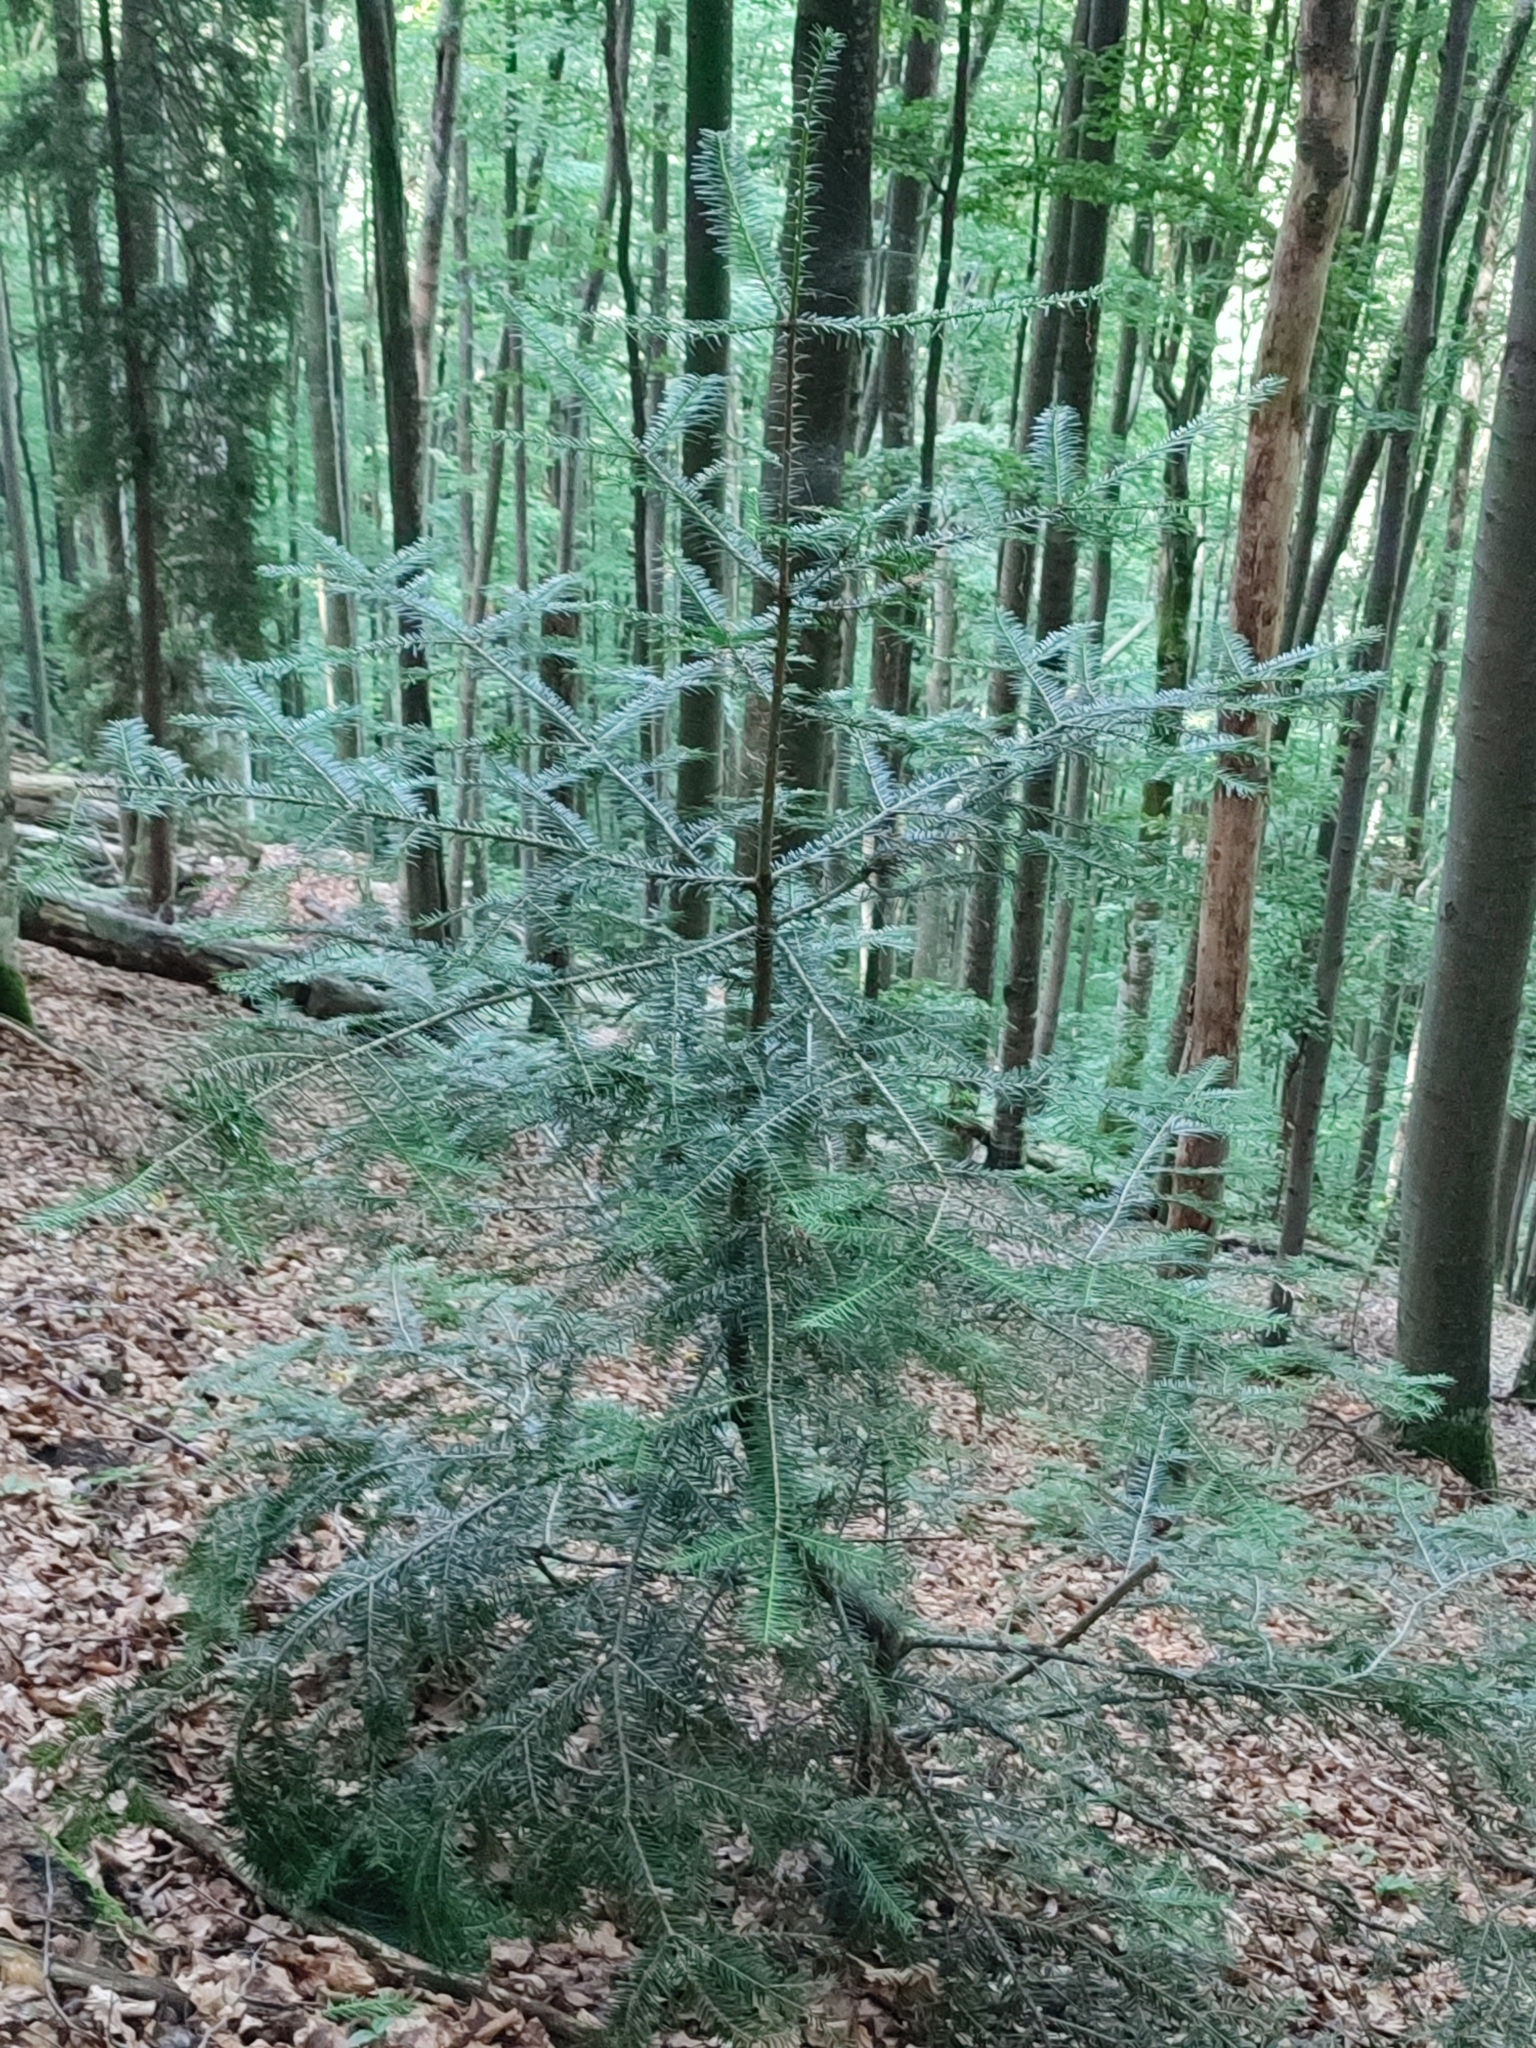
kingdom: Plantae
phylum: Tracheophyta
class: Pinopsida
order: Pinales
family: Pinaceae
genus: Abies
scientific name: Abies alba
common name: Silver fir
